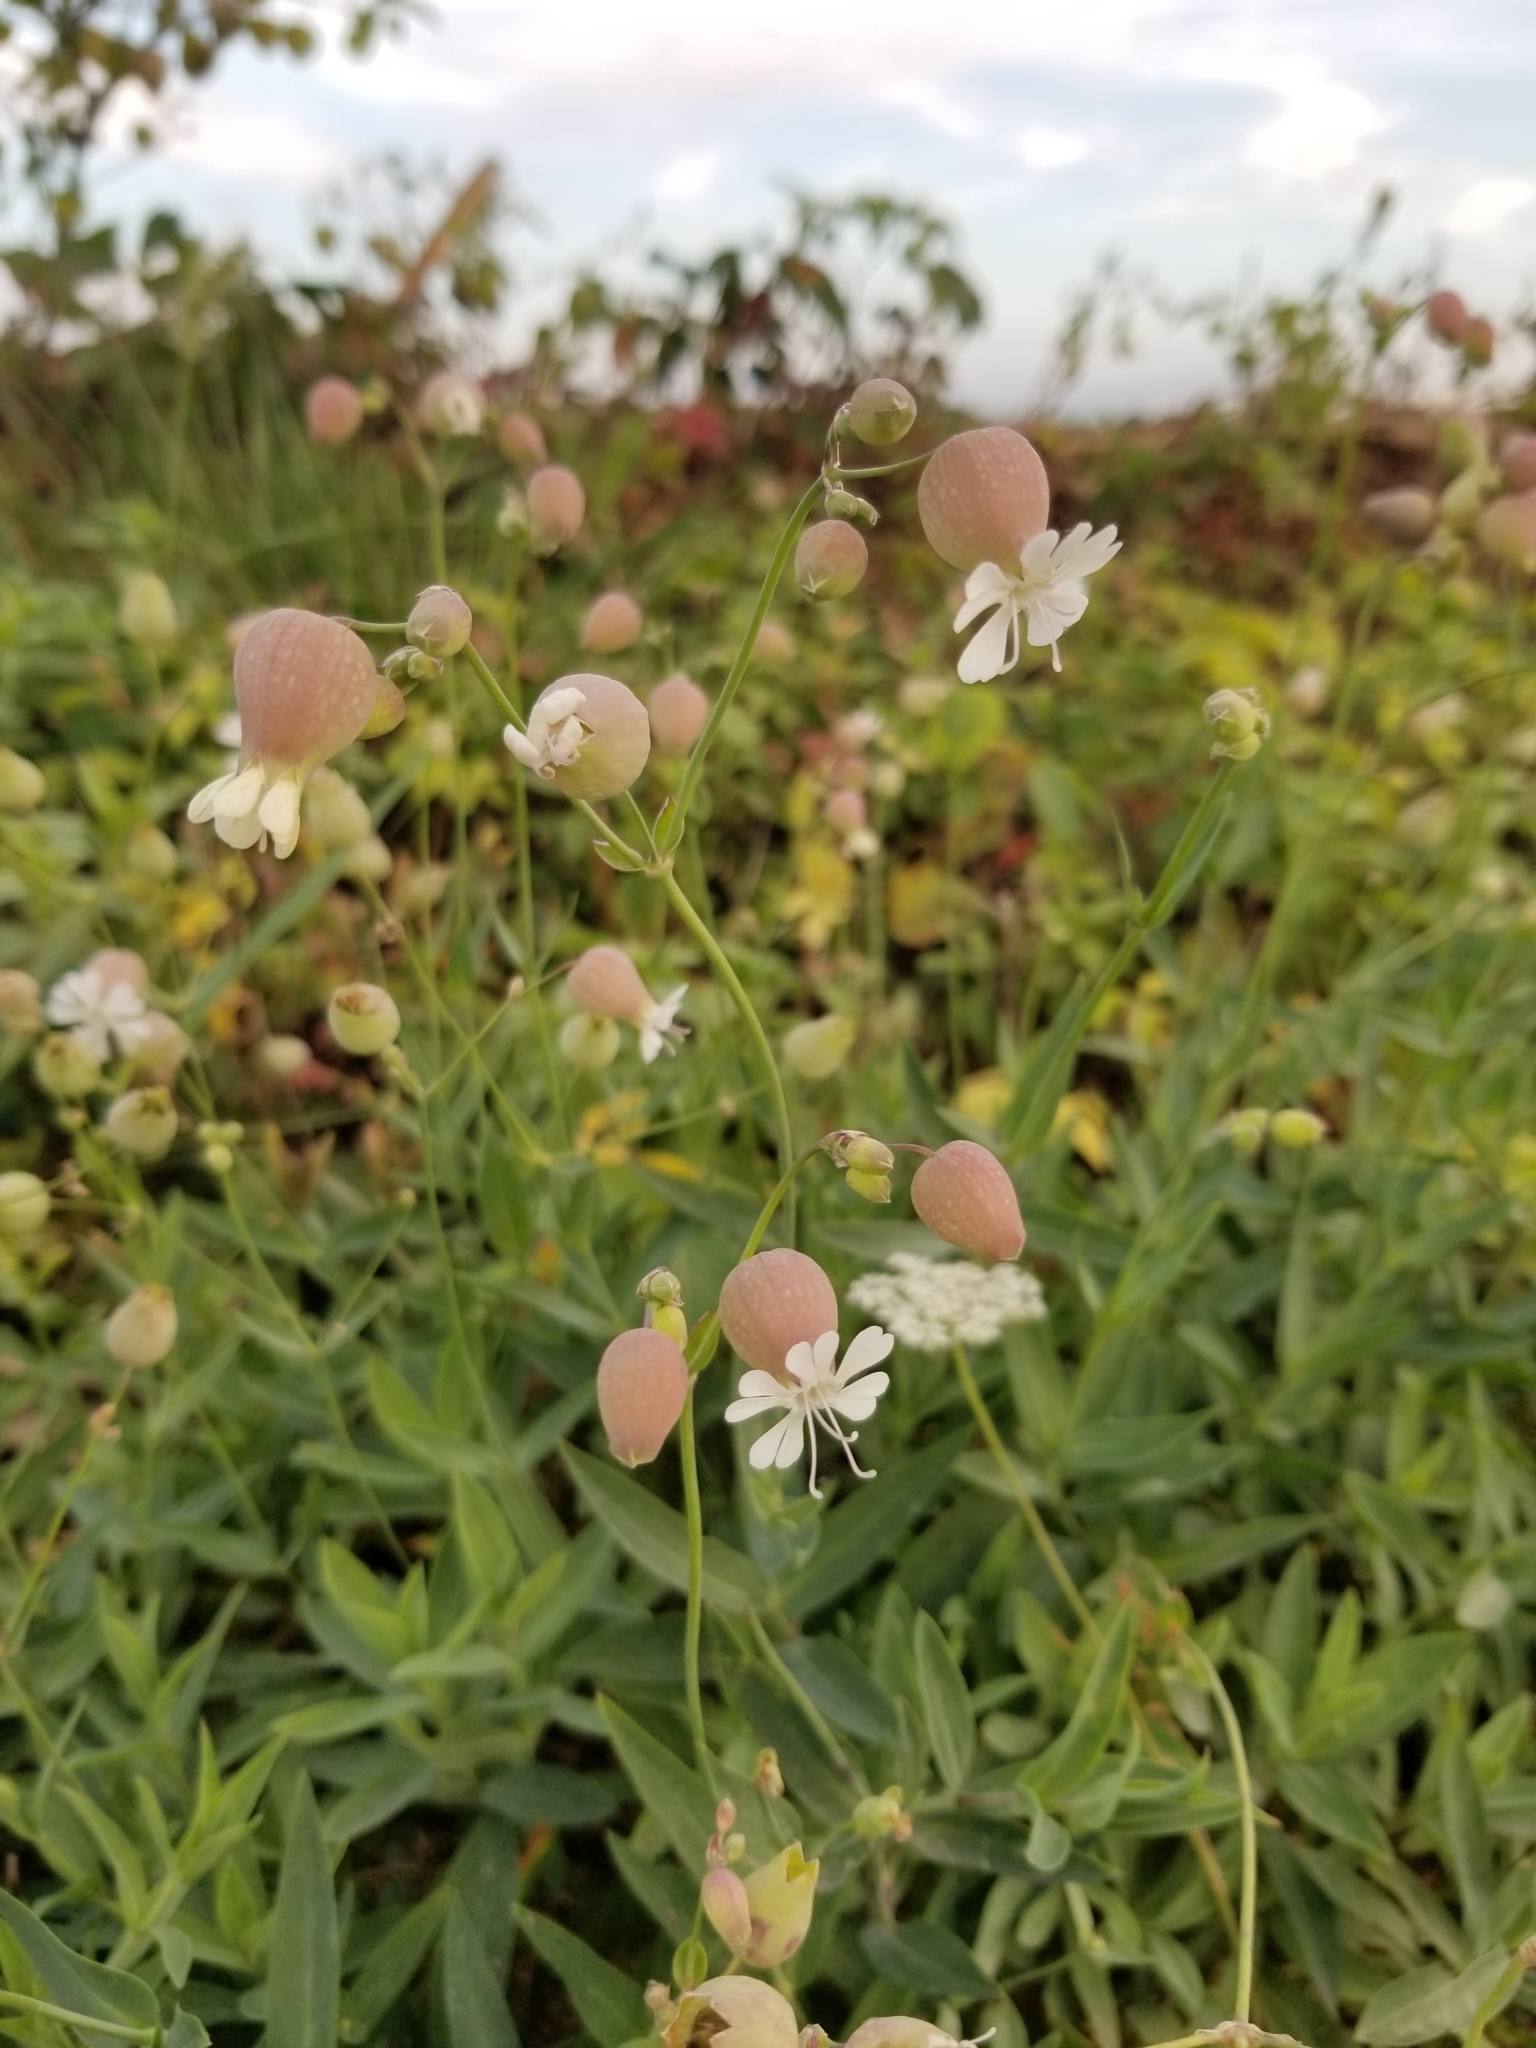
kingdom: Plantae
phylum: Tracheophyta
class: Magnoliopsida
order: Caryophyllales
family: Caryophyllaceae
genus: Silene
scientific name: Silene vulgaris
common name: Bladder campion
